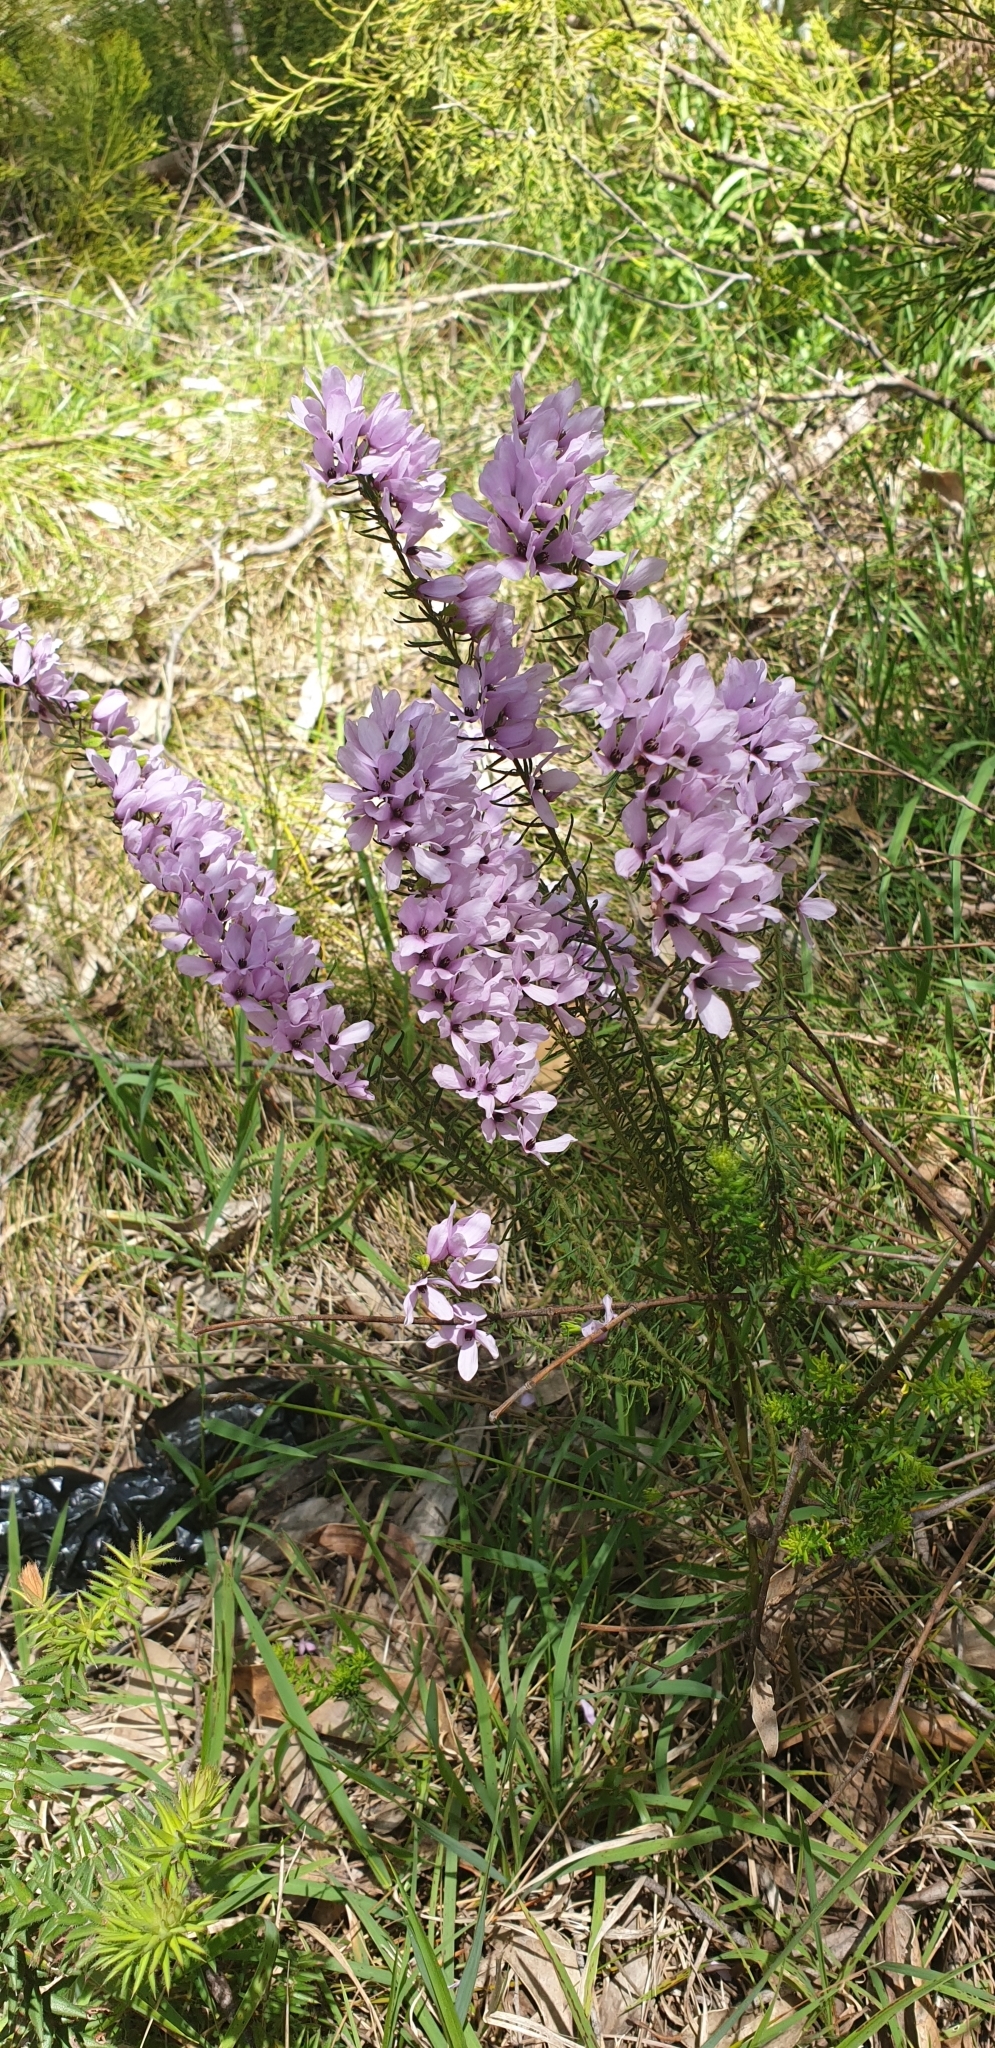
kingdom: Plantae
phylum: Tracheophyta
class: Magnoliopsida
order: Oxalidales
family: Elaeocarpaceae
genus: Tetratheca
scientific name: Tetratheca pilosa
